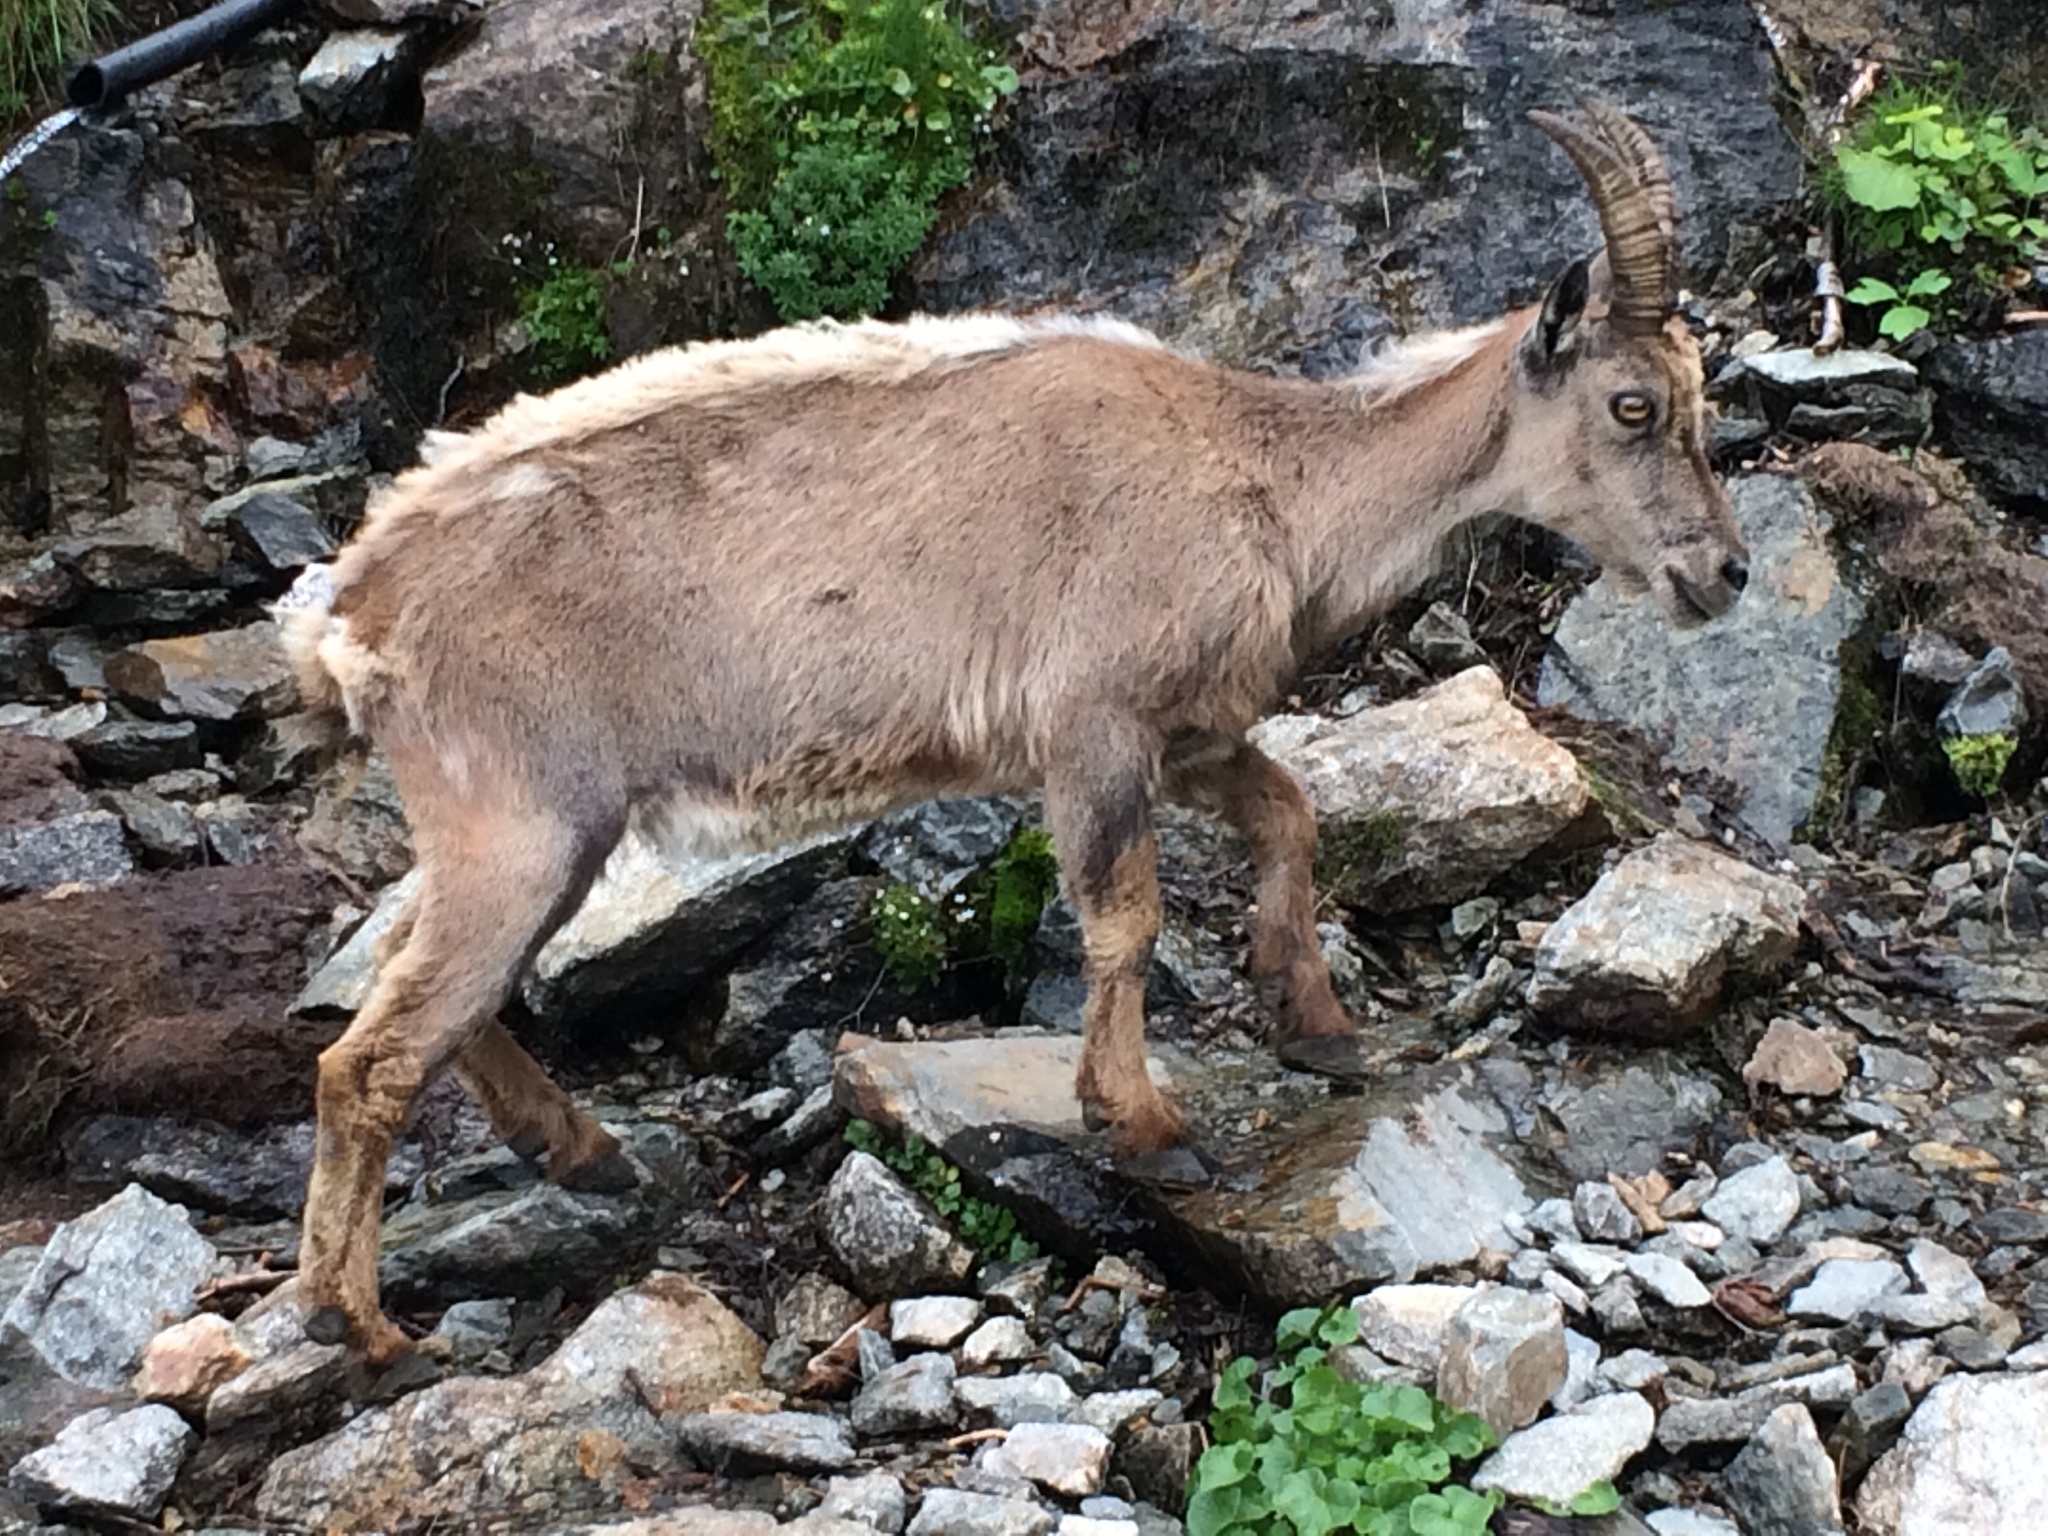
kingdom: Animalia
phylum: Chordata
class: Mammalia
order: Artiodactyla
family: Bovidae
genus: Capra
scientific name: Capra ibex
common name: Alpine ibex
